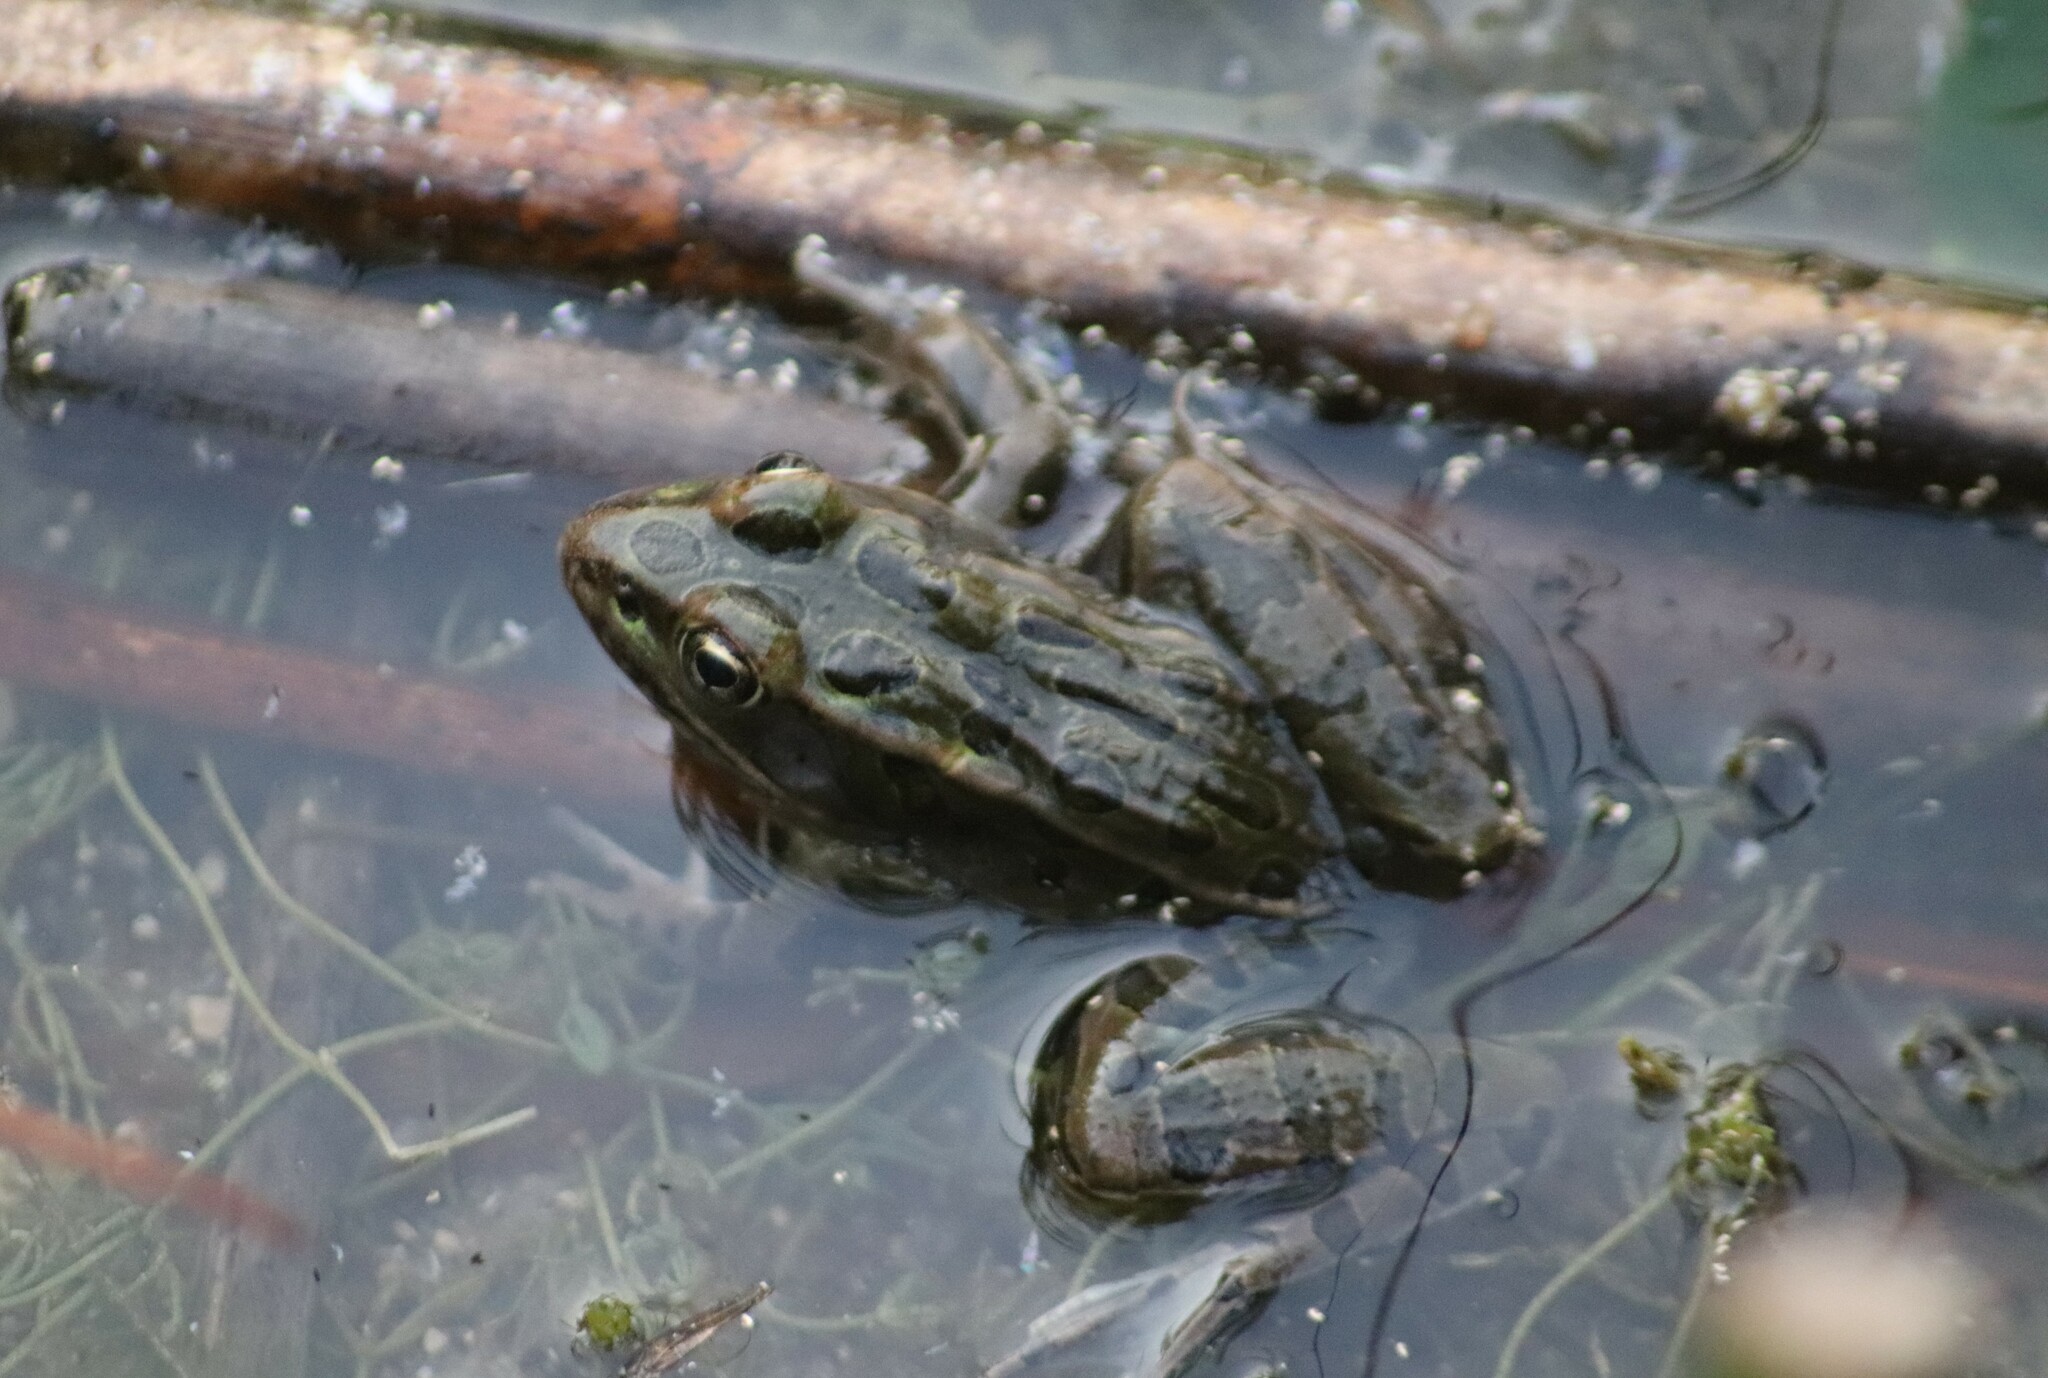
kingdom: Animalia
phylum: Chordata
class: Amphibia
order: Anura
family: Ranidae
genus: Lithobates
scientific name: Lithobates pipiens
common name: Northern leopard frog
